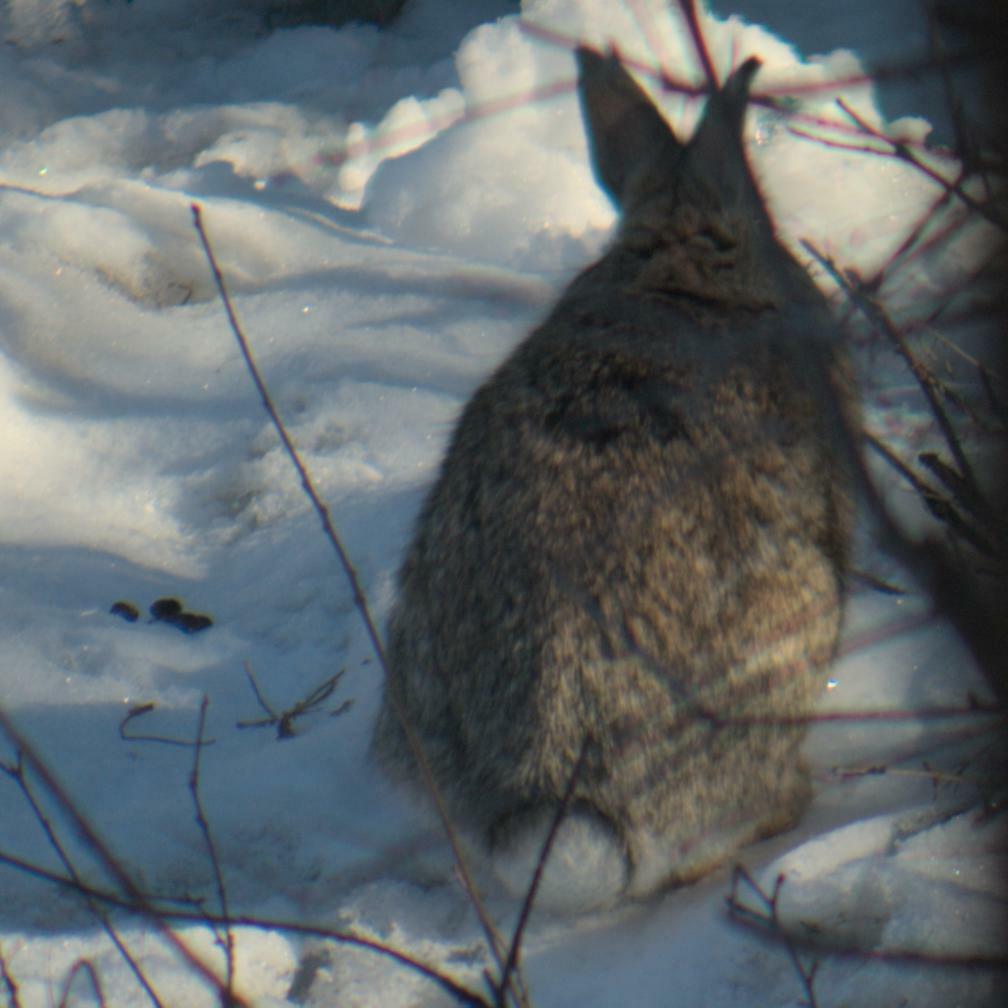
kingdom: Animalia
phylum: Chordata
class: Mammalia
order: Lagomorpha
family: Leporidae
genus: Sylvilagus
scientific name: Sylvilagus floridanus
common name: Eastern cottontail
